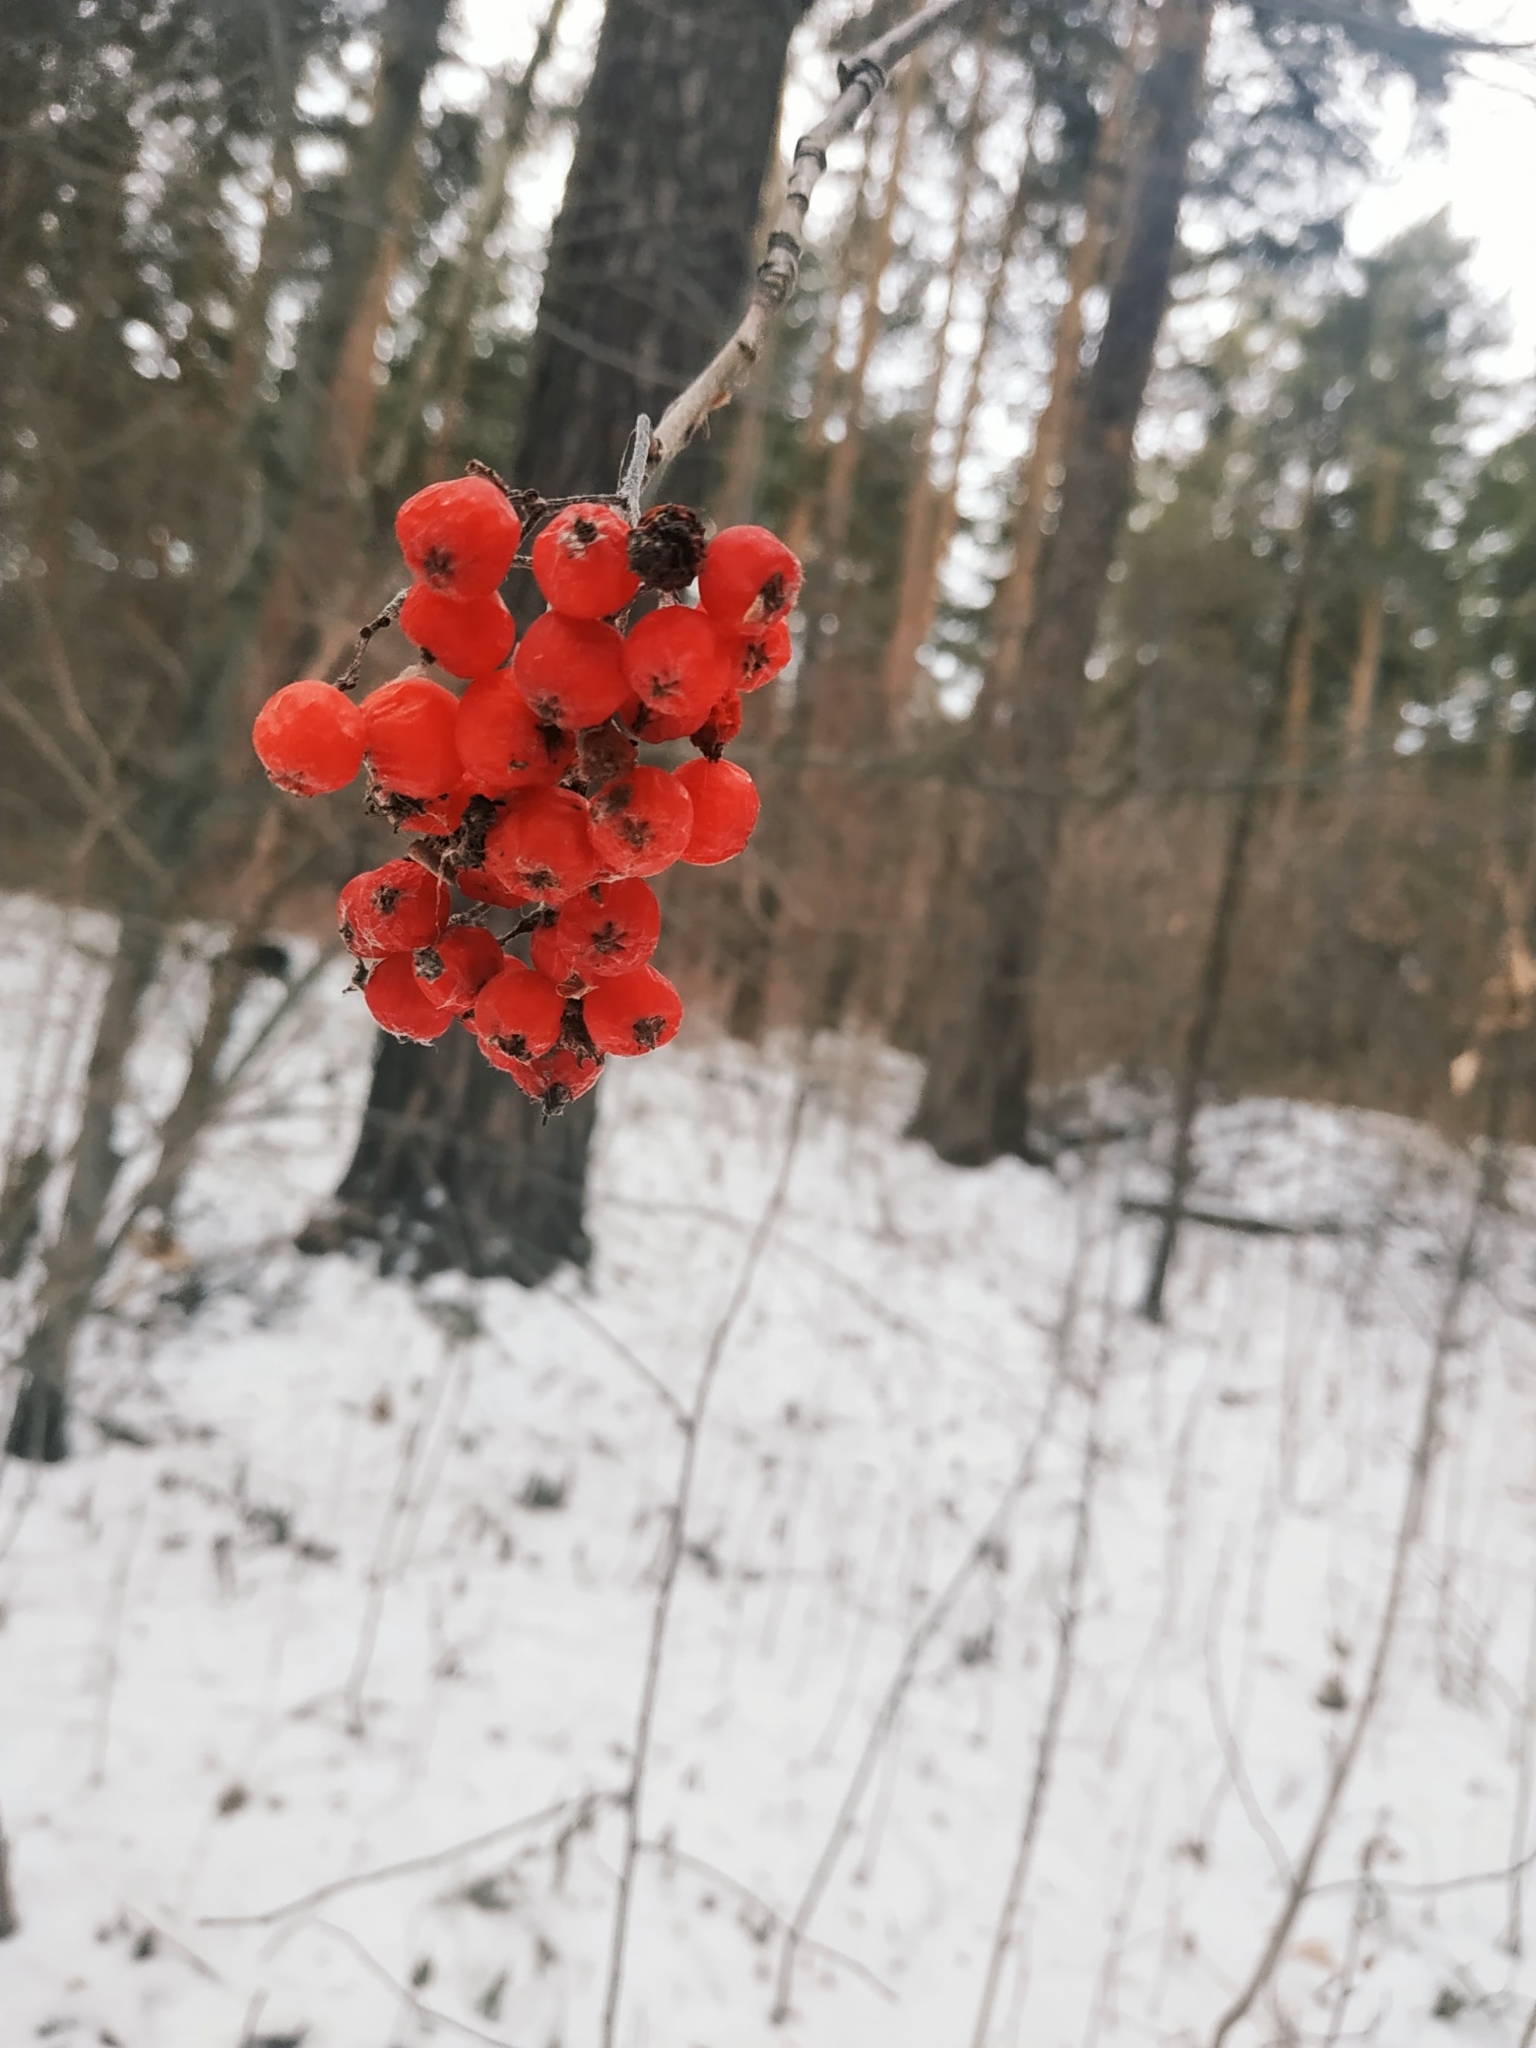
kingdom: Plantae
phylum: Tracheophyta
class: Magnoliopsida
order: Rosales
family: Rosaceae
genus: Sorbus
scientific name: Sorbus aucuparia
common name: Rowan
